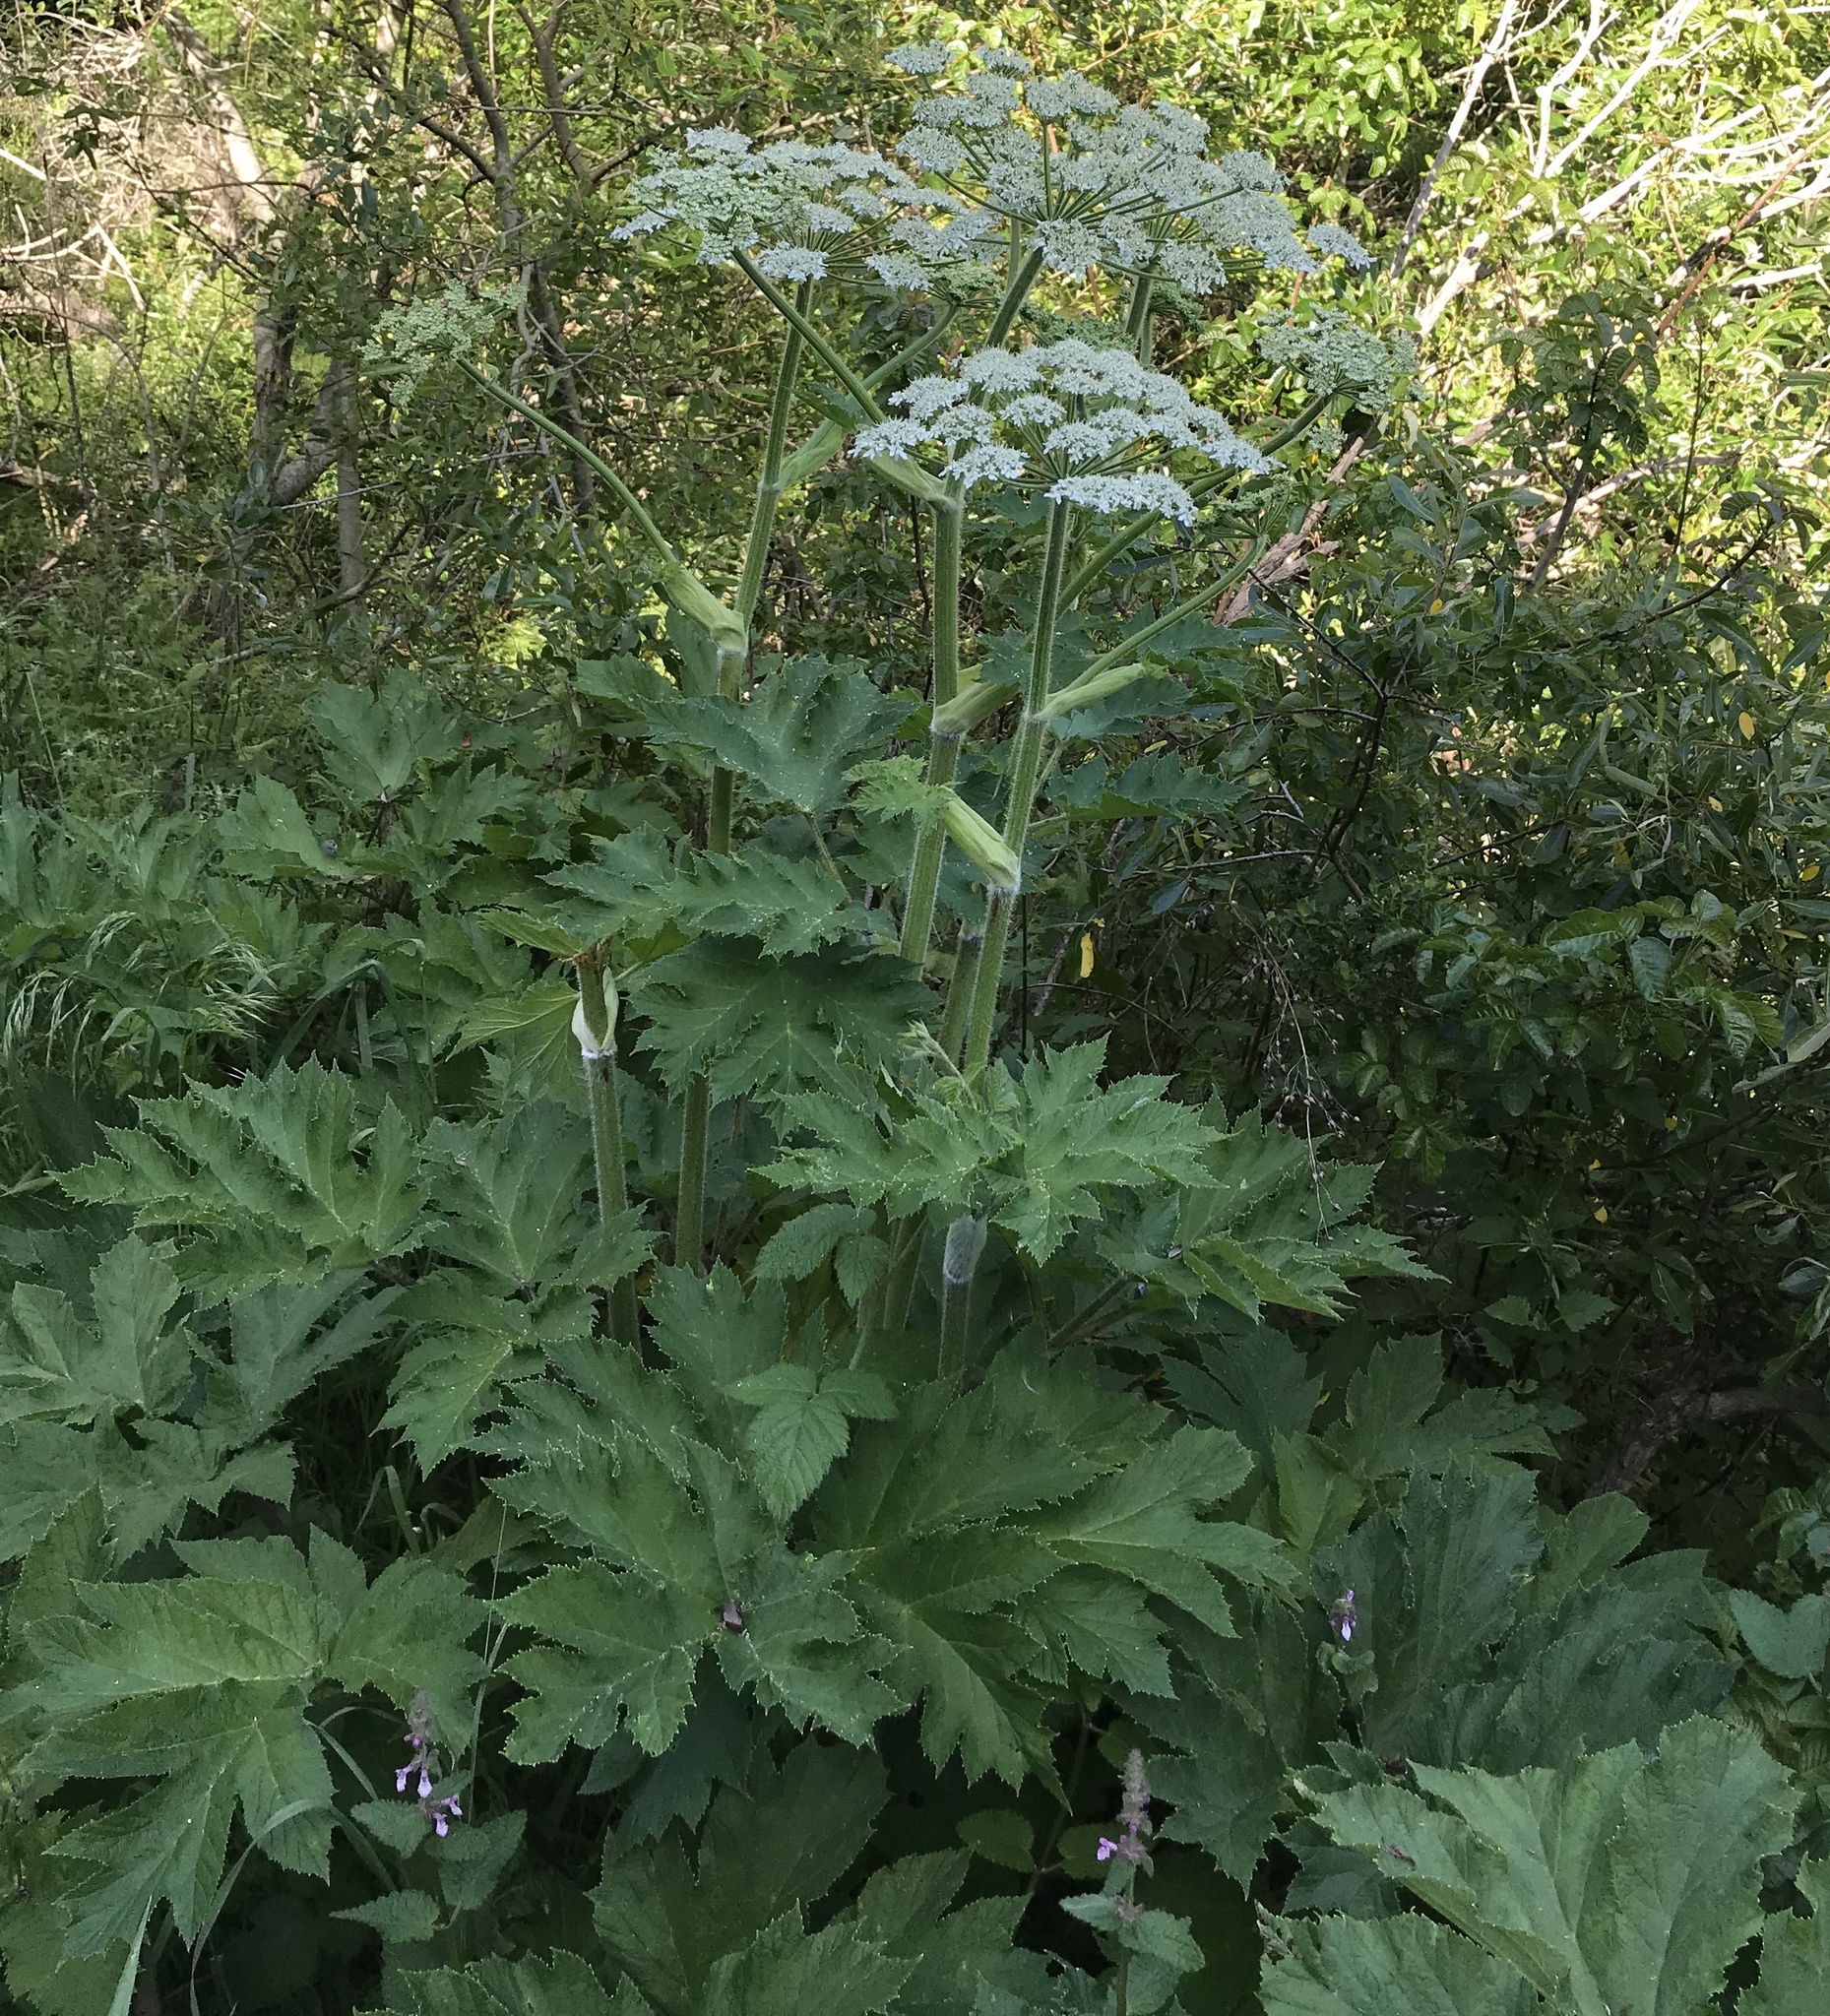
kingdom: Plantae
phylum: Tracheophyta
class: Magnoliopsida
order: Apiales
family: Apiaceae
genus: Heracleum
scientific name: Heracleum maximum
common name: American cow parsnip
